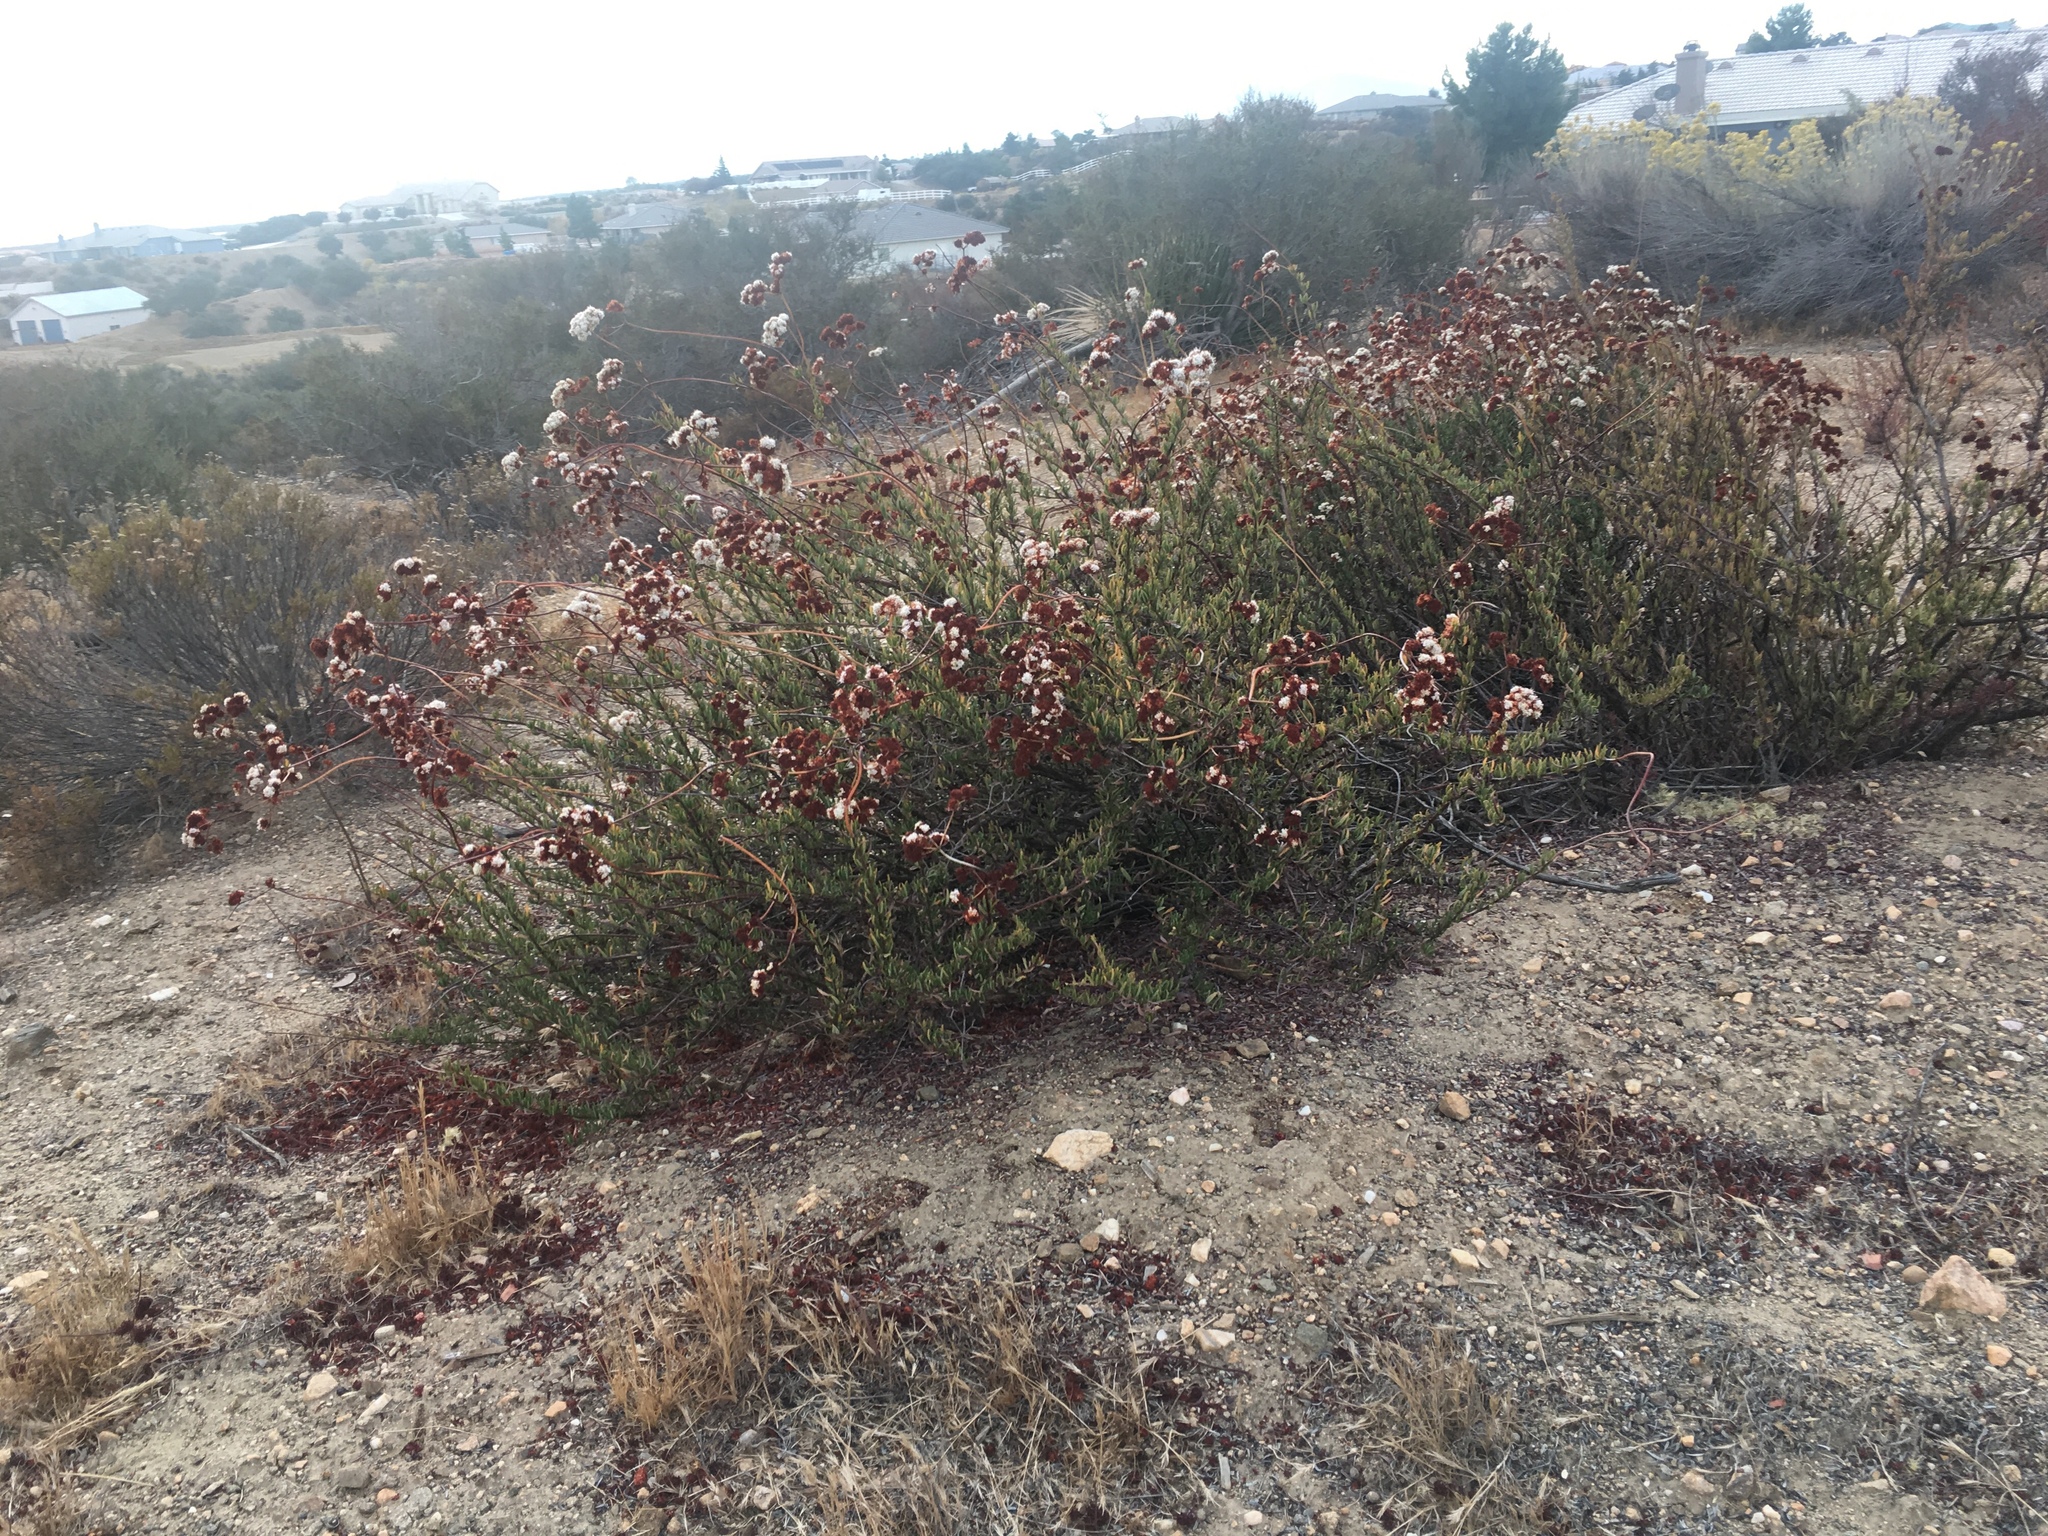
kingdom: Plantae
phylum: Tracheophyta
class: Magnoliopsida
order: Caryophyllales
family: Polygonaceae
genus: Eriogonum
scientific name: Eriogonum fasciculatum
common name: California wild buckwheat
